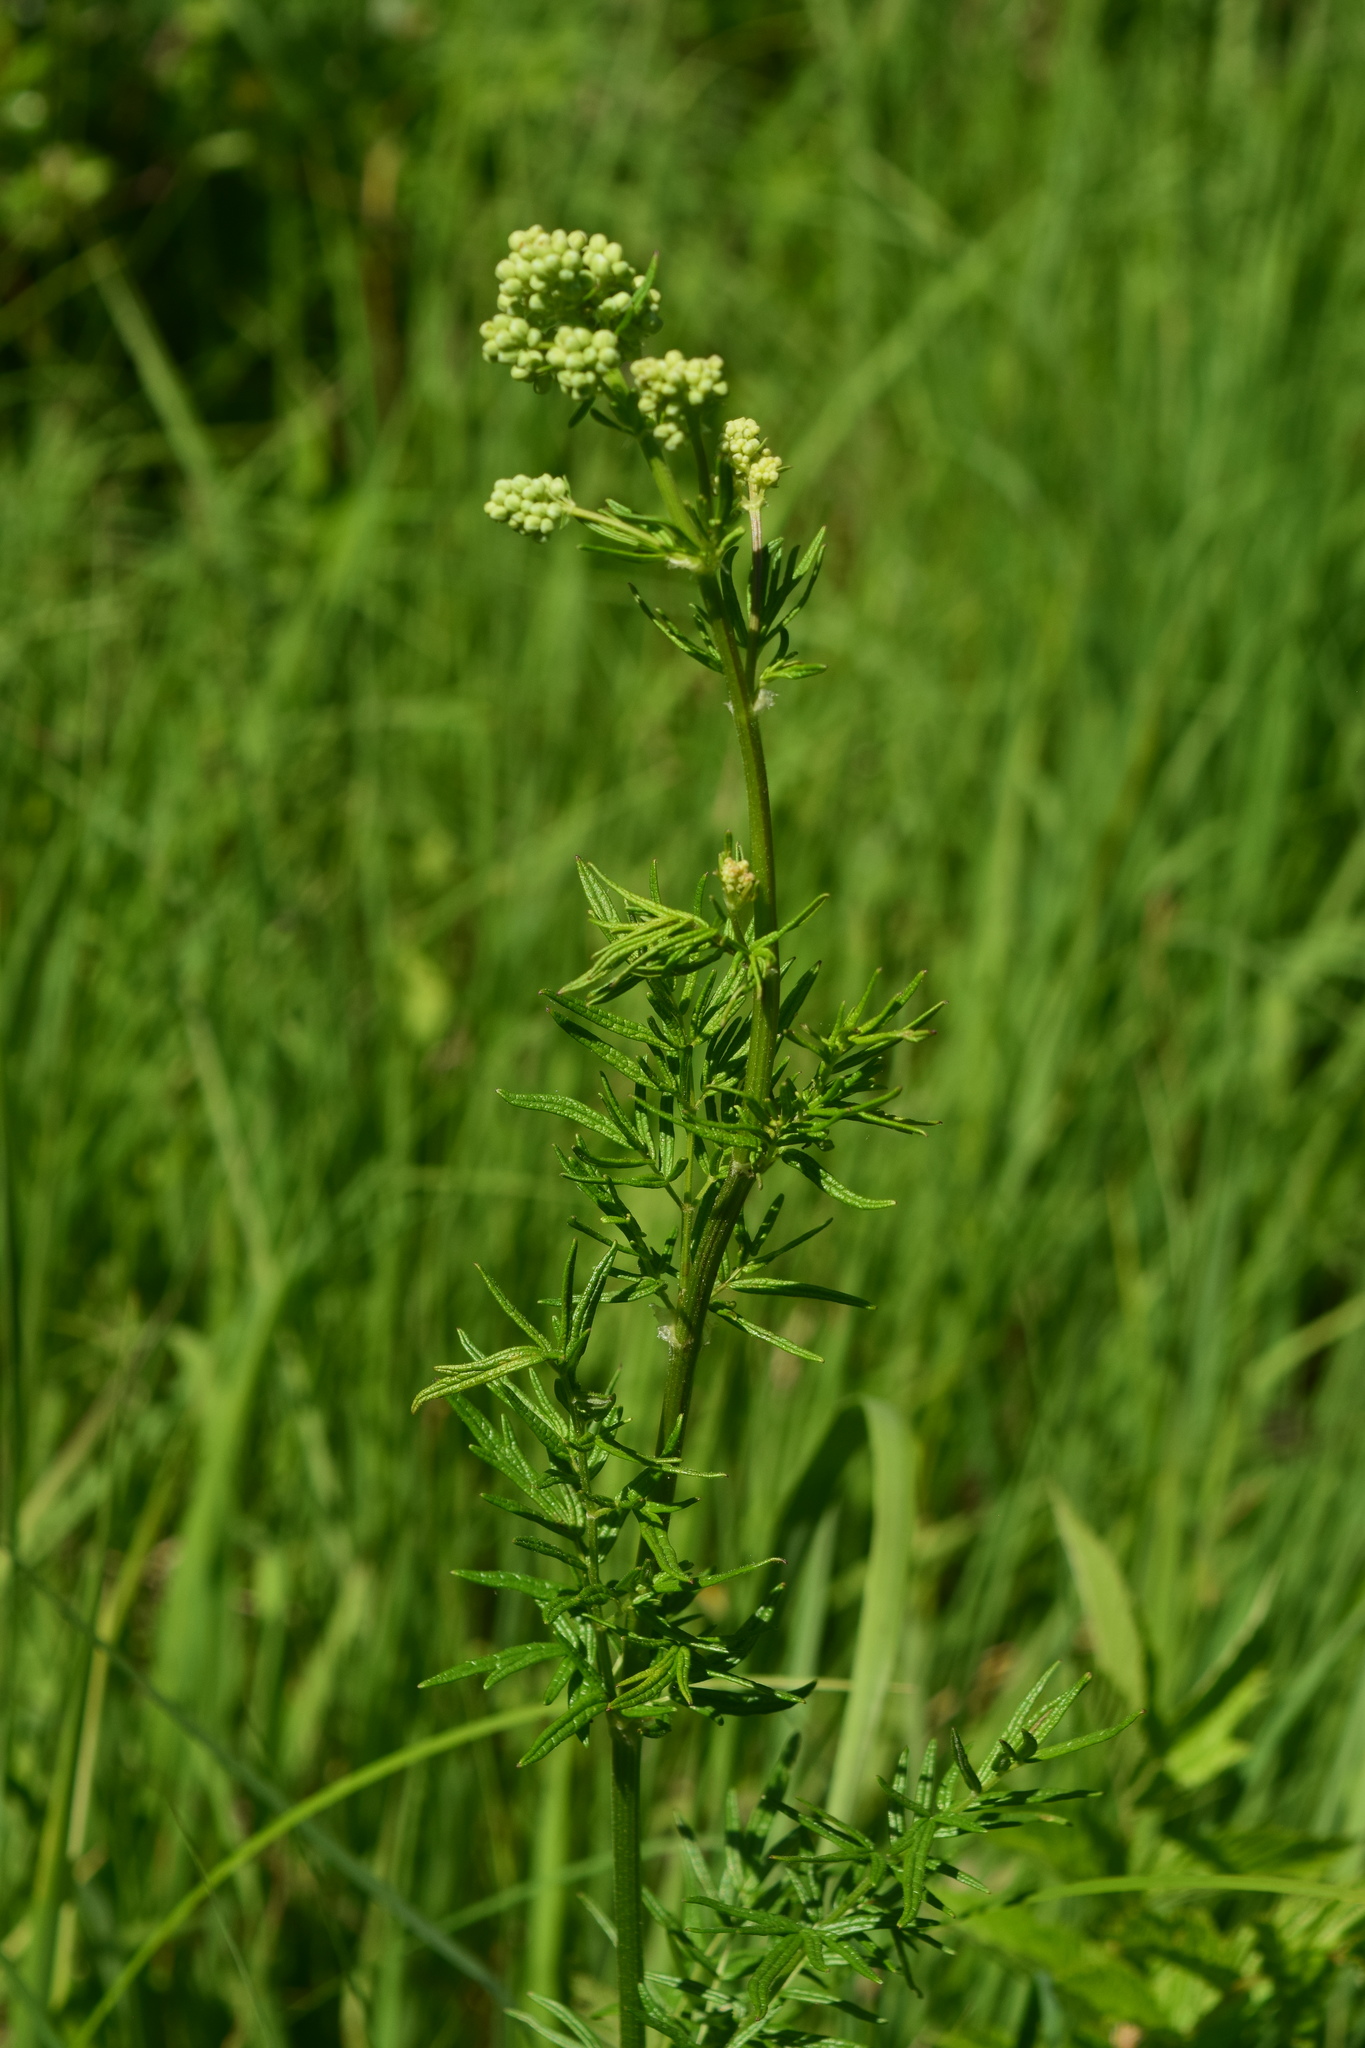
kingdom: Plantae
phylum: Tracheophyta
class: Magnoliopsida
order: Ranunculales
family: Ranunculaceae
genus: Thalictrum
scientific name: Thalictrum lucidum
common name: Shining meadow-rue
